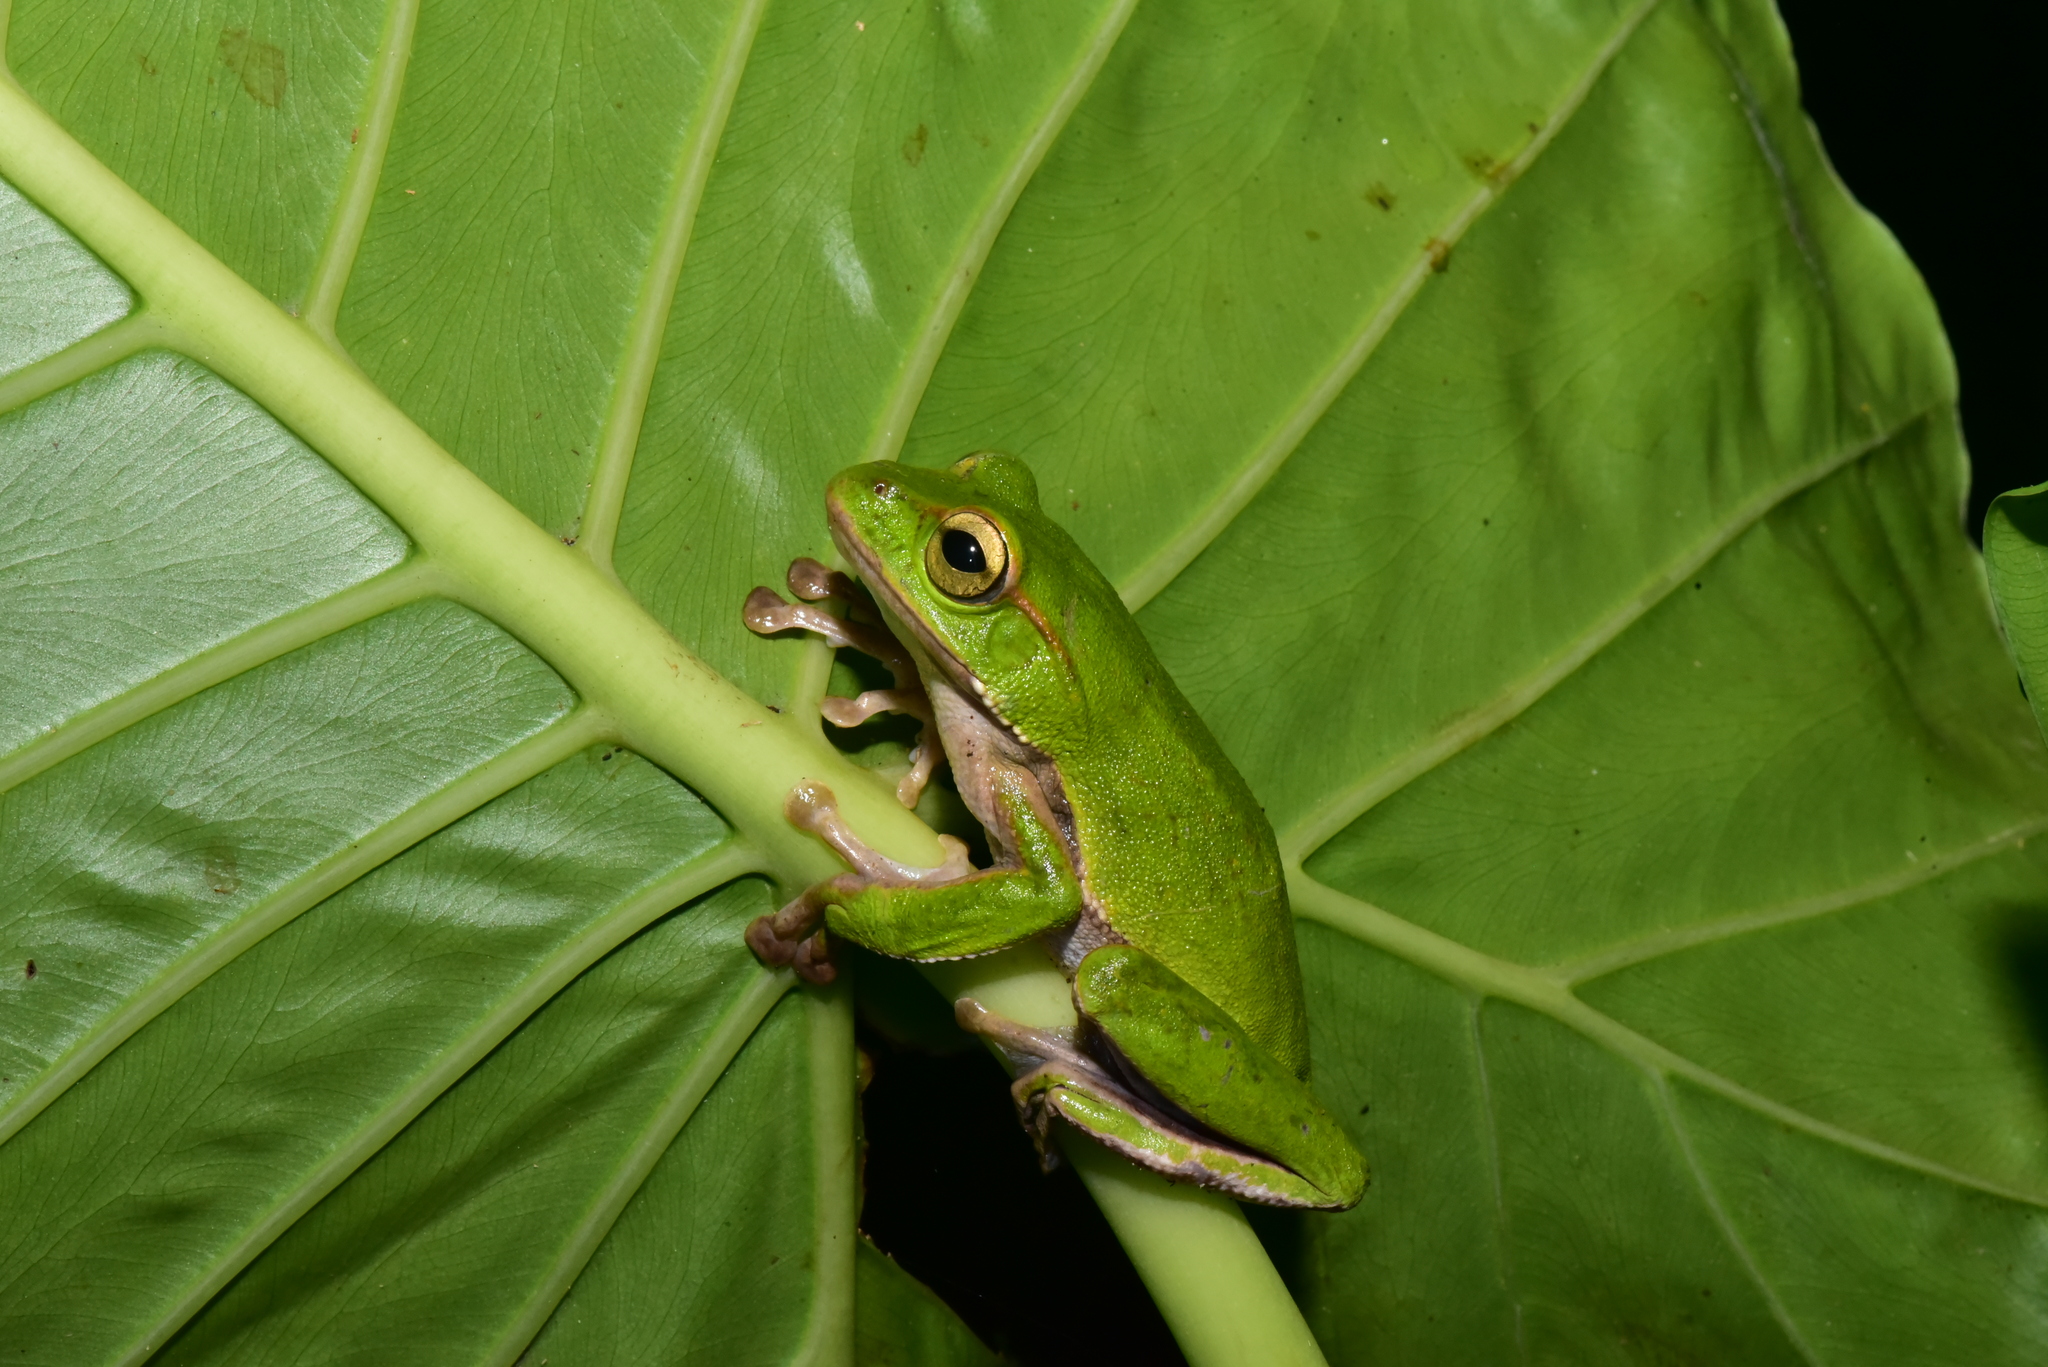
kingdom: Animalia
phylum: Chordata
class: Amphibia
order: Anura
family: Rhacophoridae
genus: Zhangixalus
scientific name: Zhangixalus prasinatus
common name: Tributary flying frog
